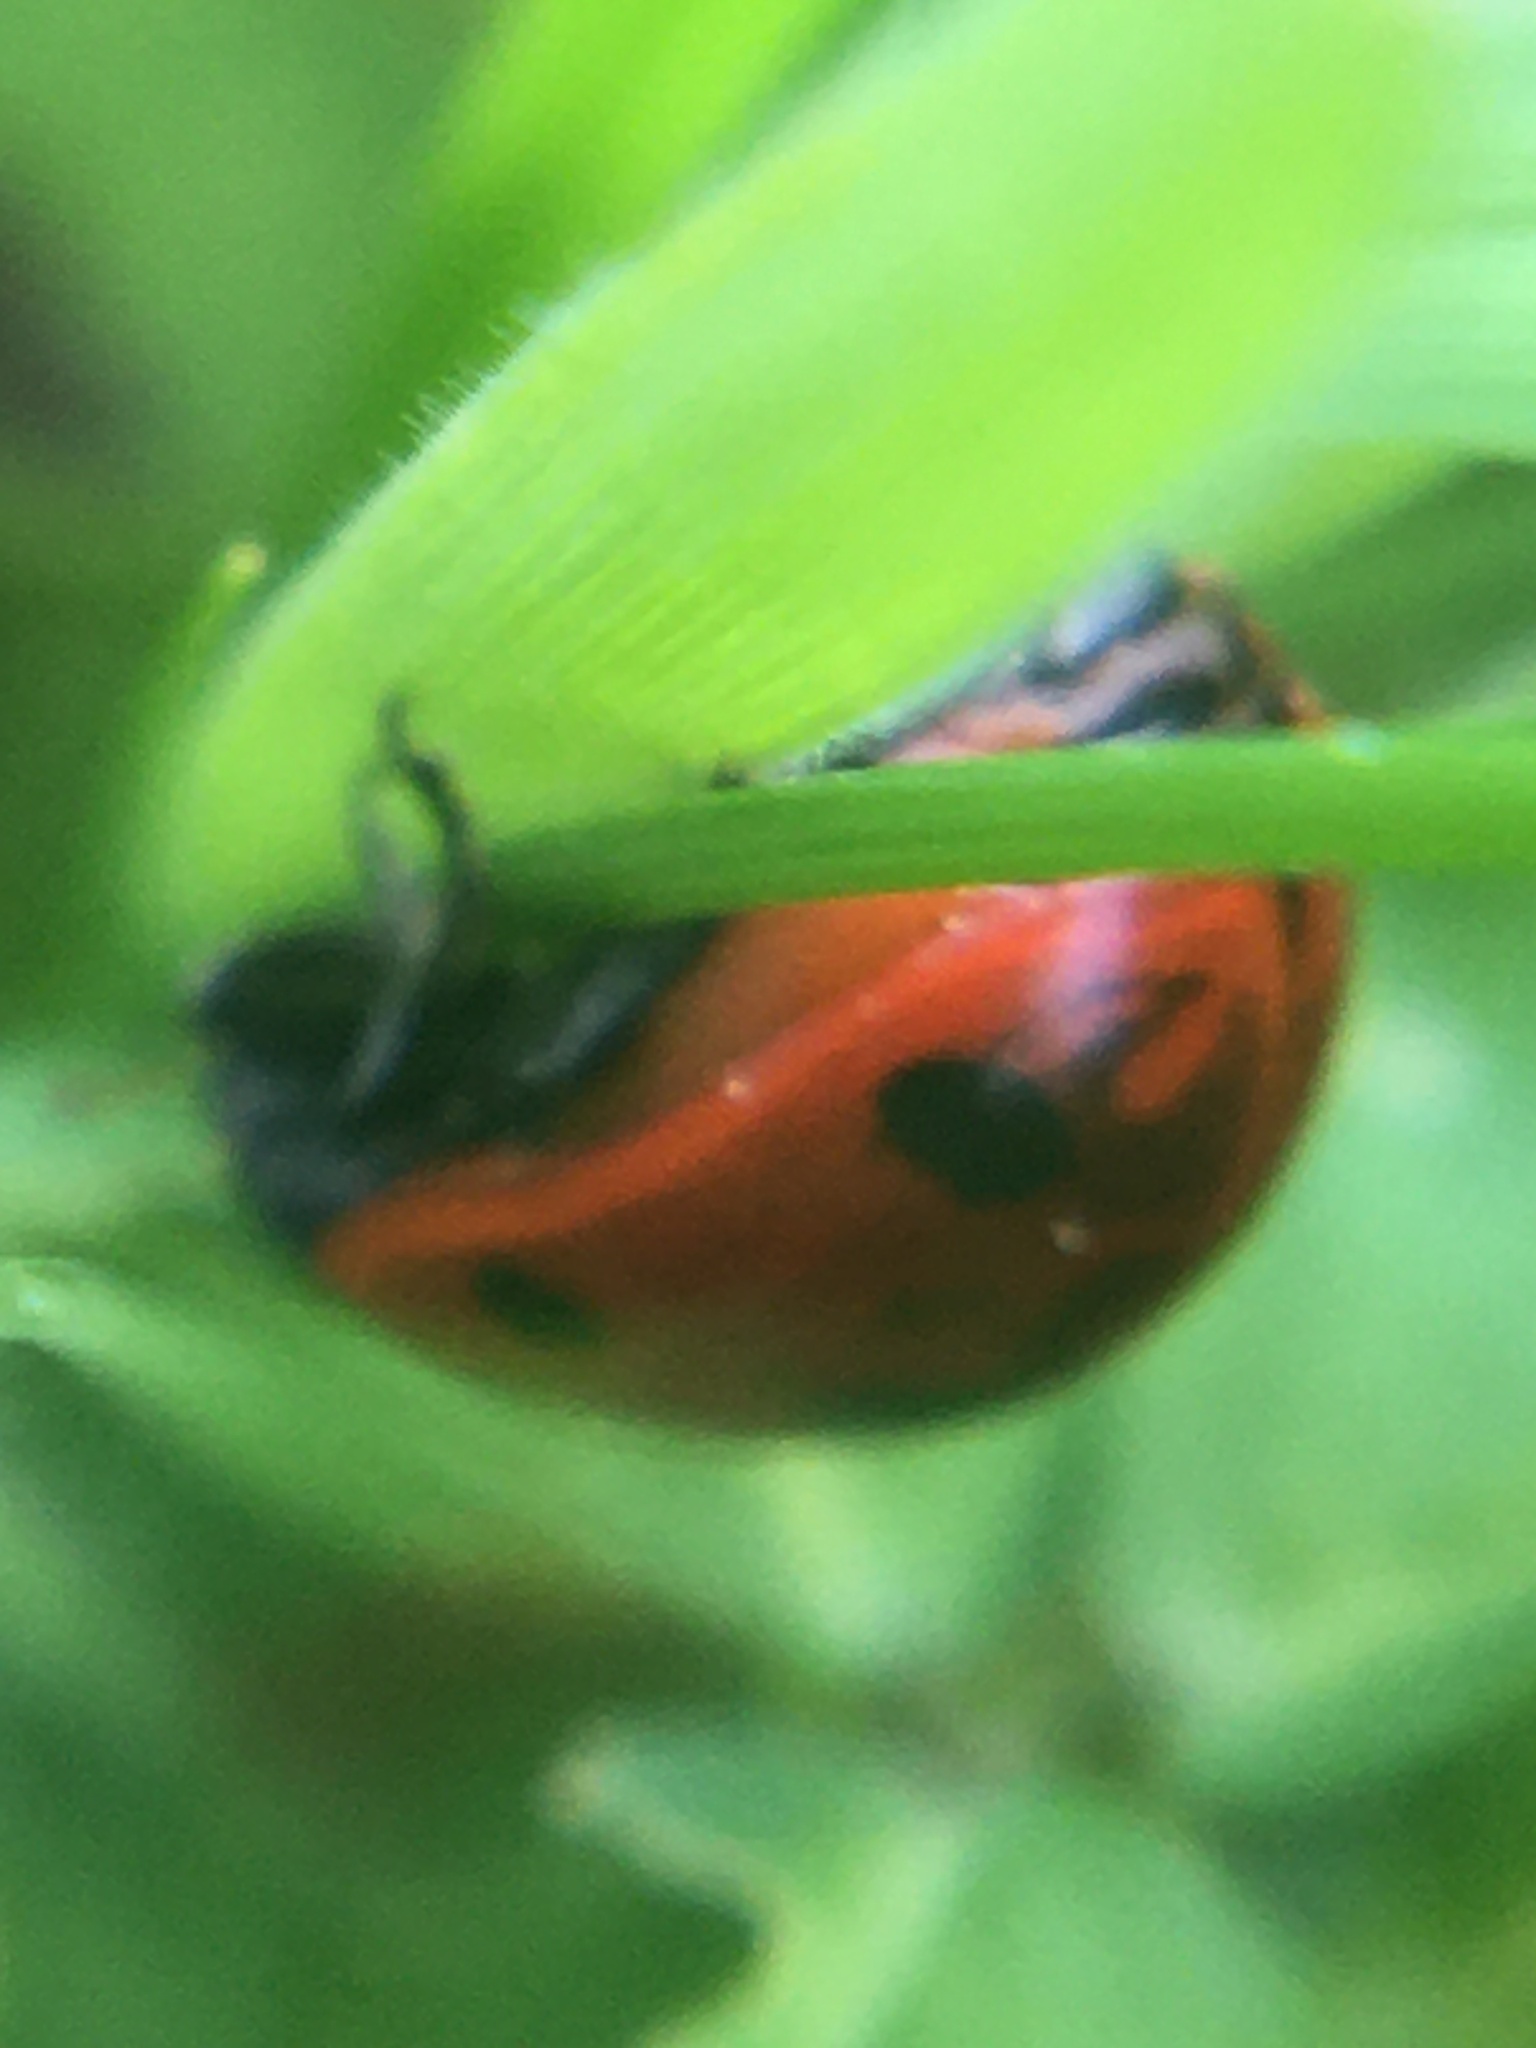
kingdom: Animalia
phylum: Arthropoda
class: Insecta
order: Coleoptera
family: Coccinellidae
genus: Coccinella
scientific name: Coccinella septempunctata
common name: Sevenspotted lady beetle
